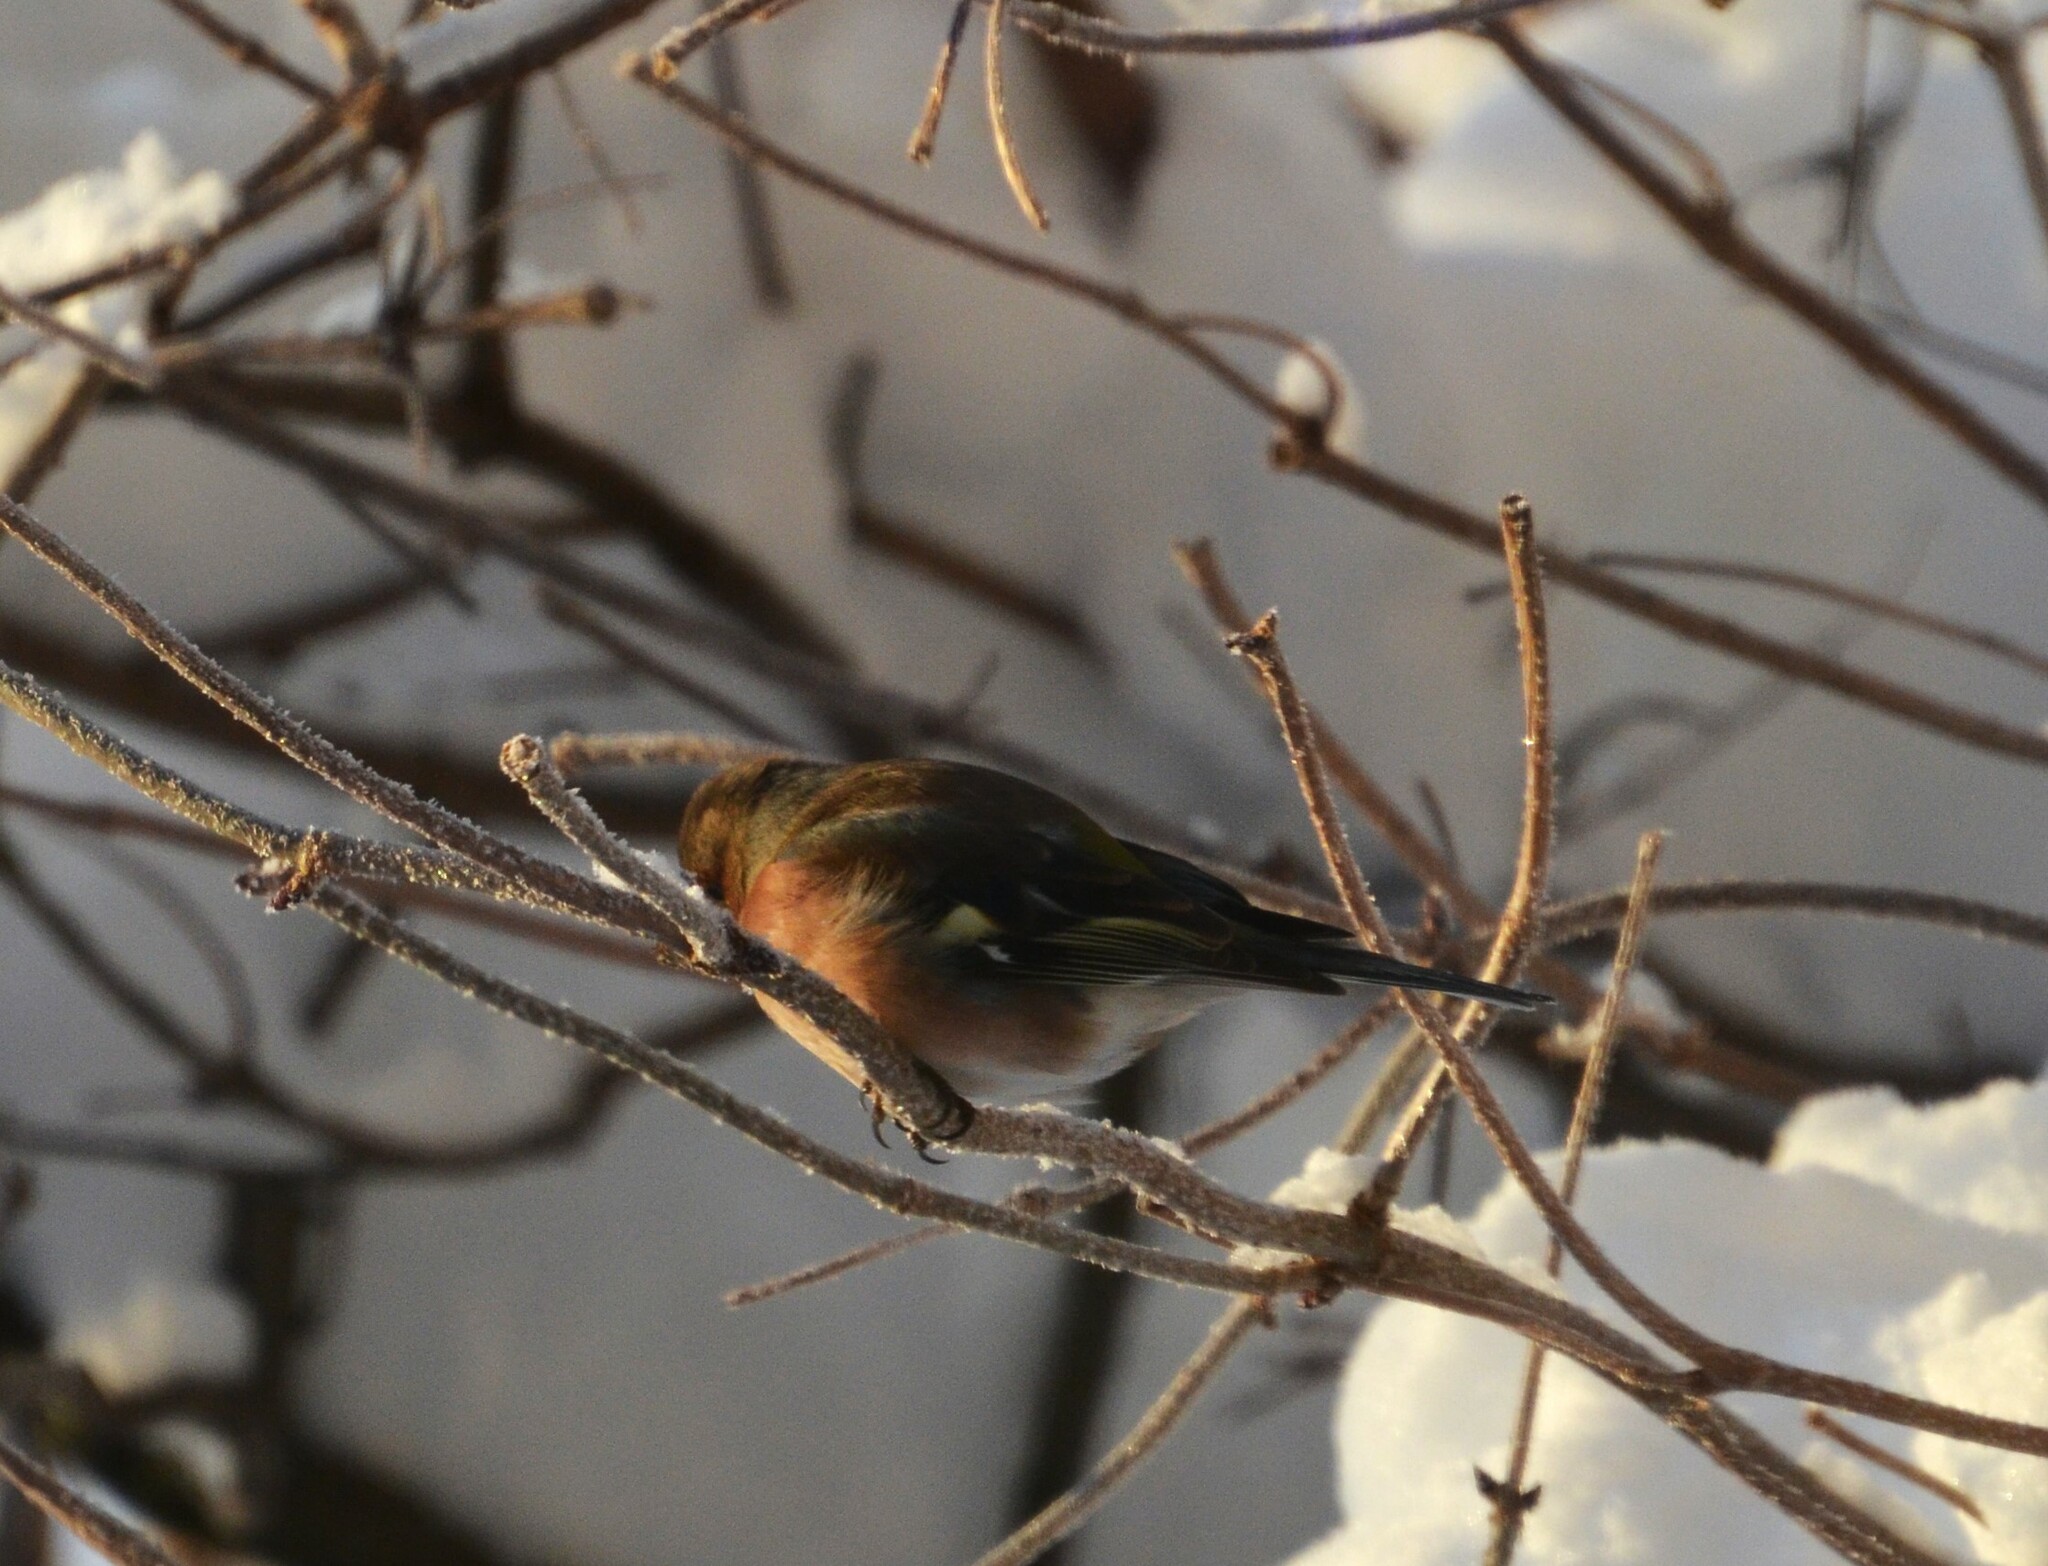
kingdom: Animalia
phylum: Chordata
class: Aves
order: Passeriformes
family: Fringillidae
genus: Fringilla
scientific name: Fringilla coelebs
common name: Common chaffinch
